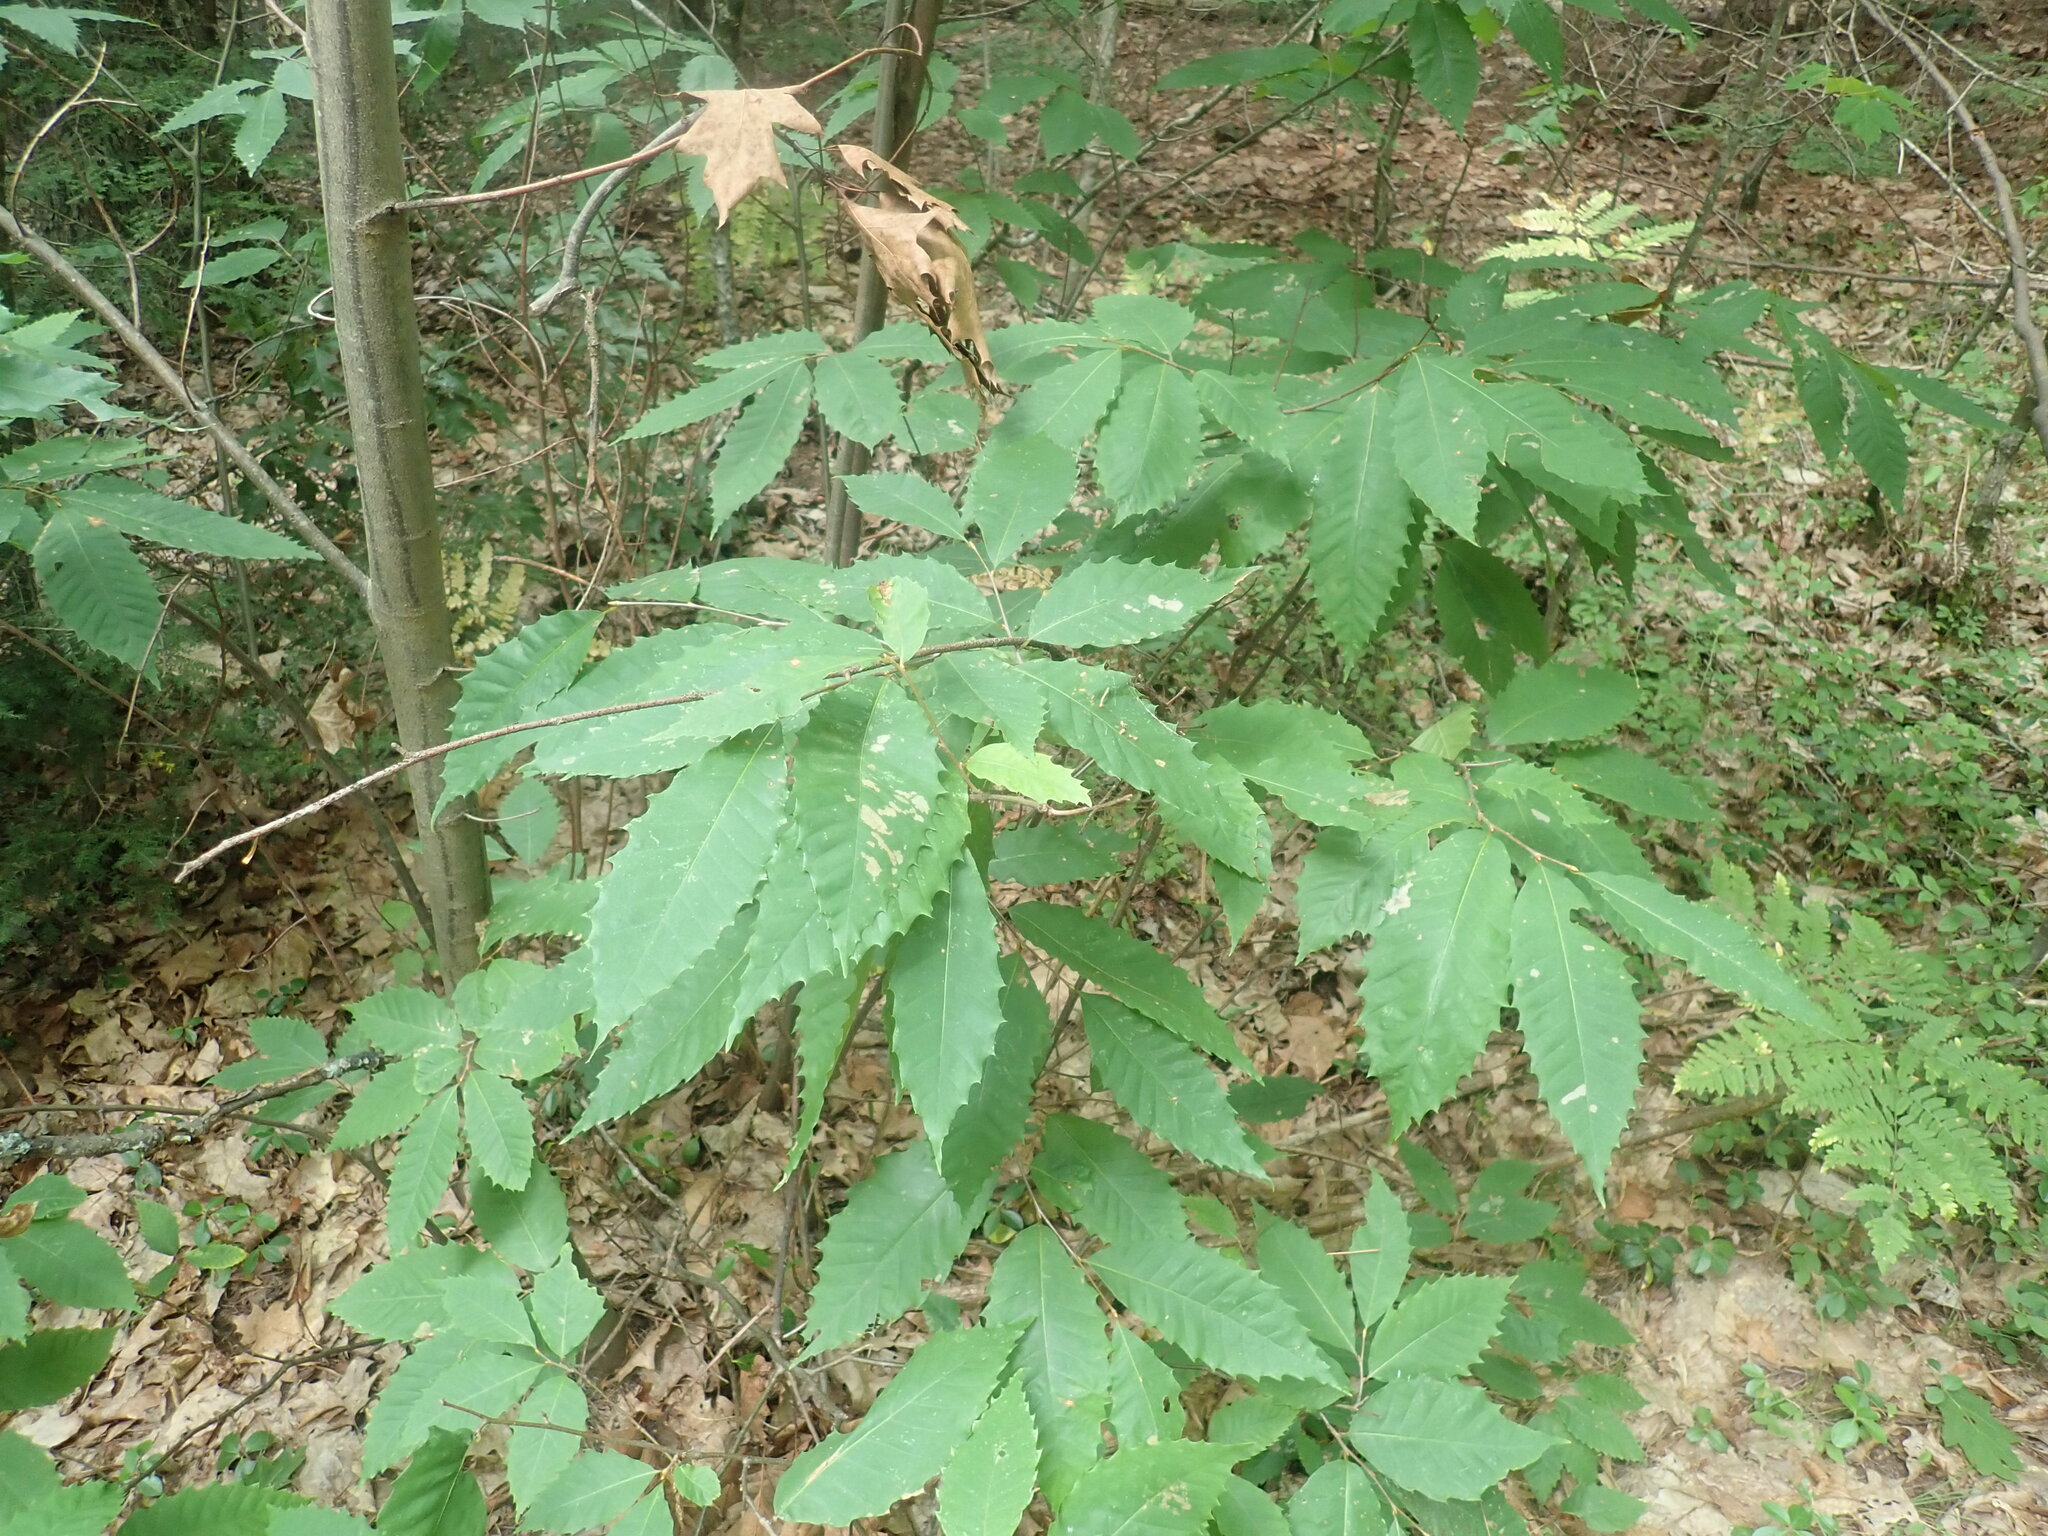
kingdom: Plantae
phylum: Tracheophyta
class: Magnoliopsida
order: Fagales
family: Fagaceae
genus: Castanea
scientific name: Castanea dentata
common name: American chestnut
